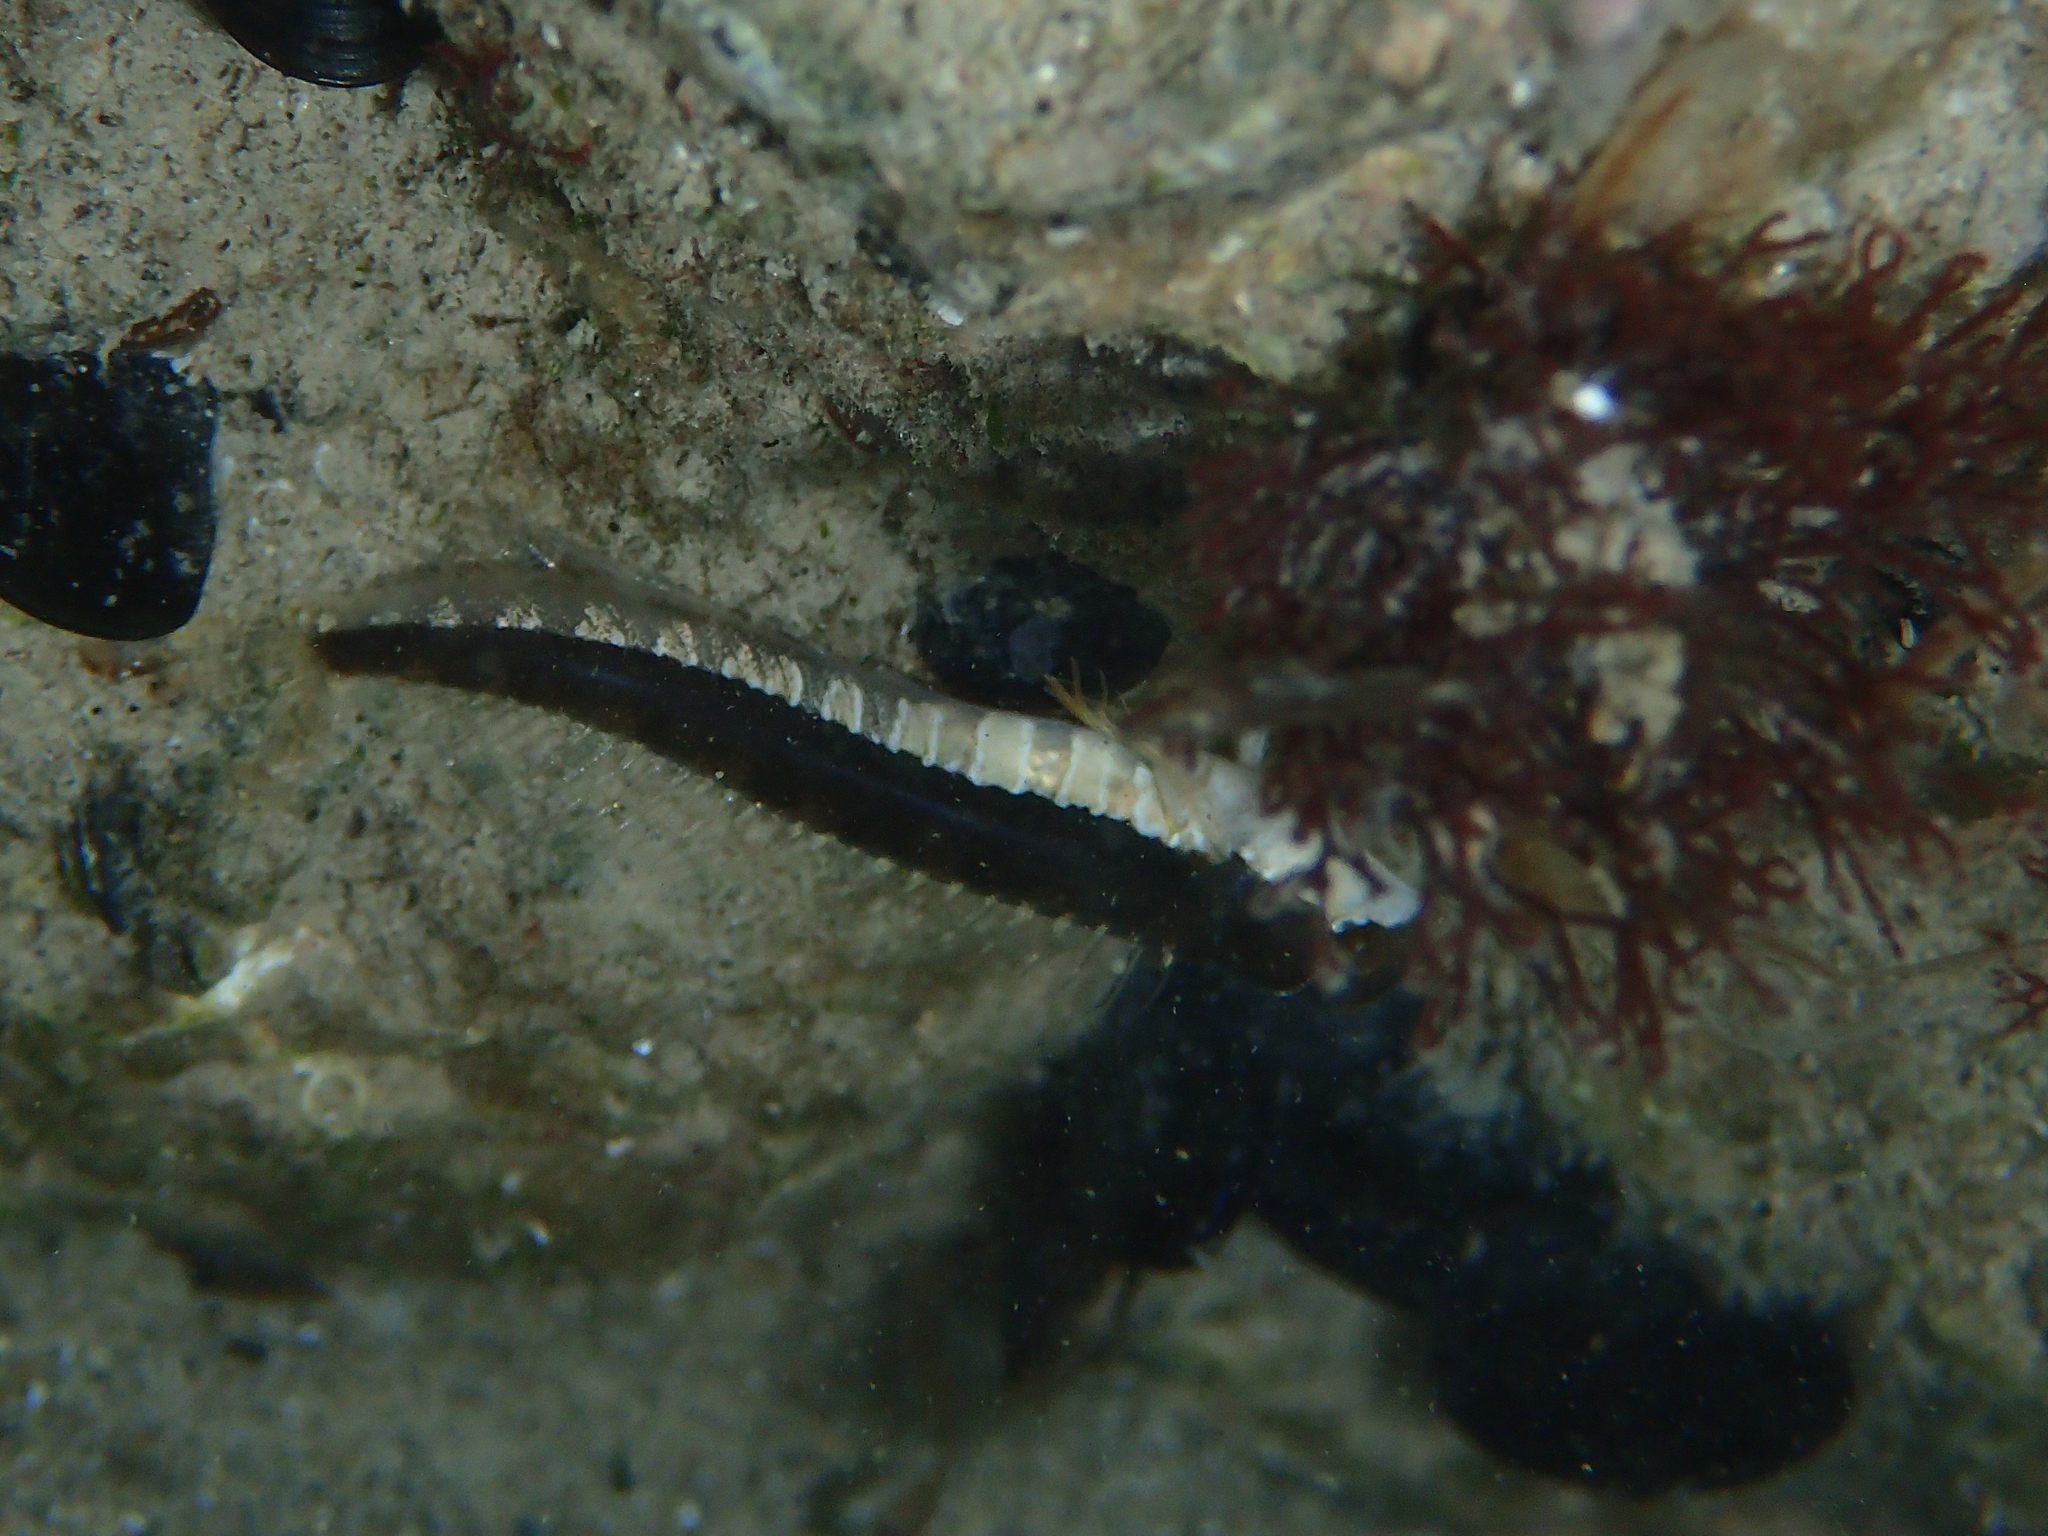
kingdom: Animalia
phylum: Chordata
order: Perciformes
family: Blenniidae
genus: Microlipophrys
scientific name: Microlipophrys dalmatinus
